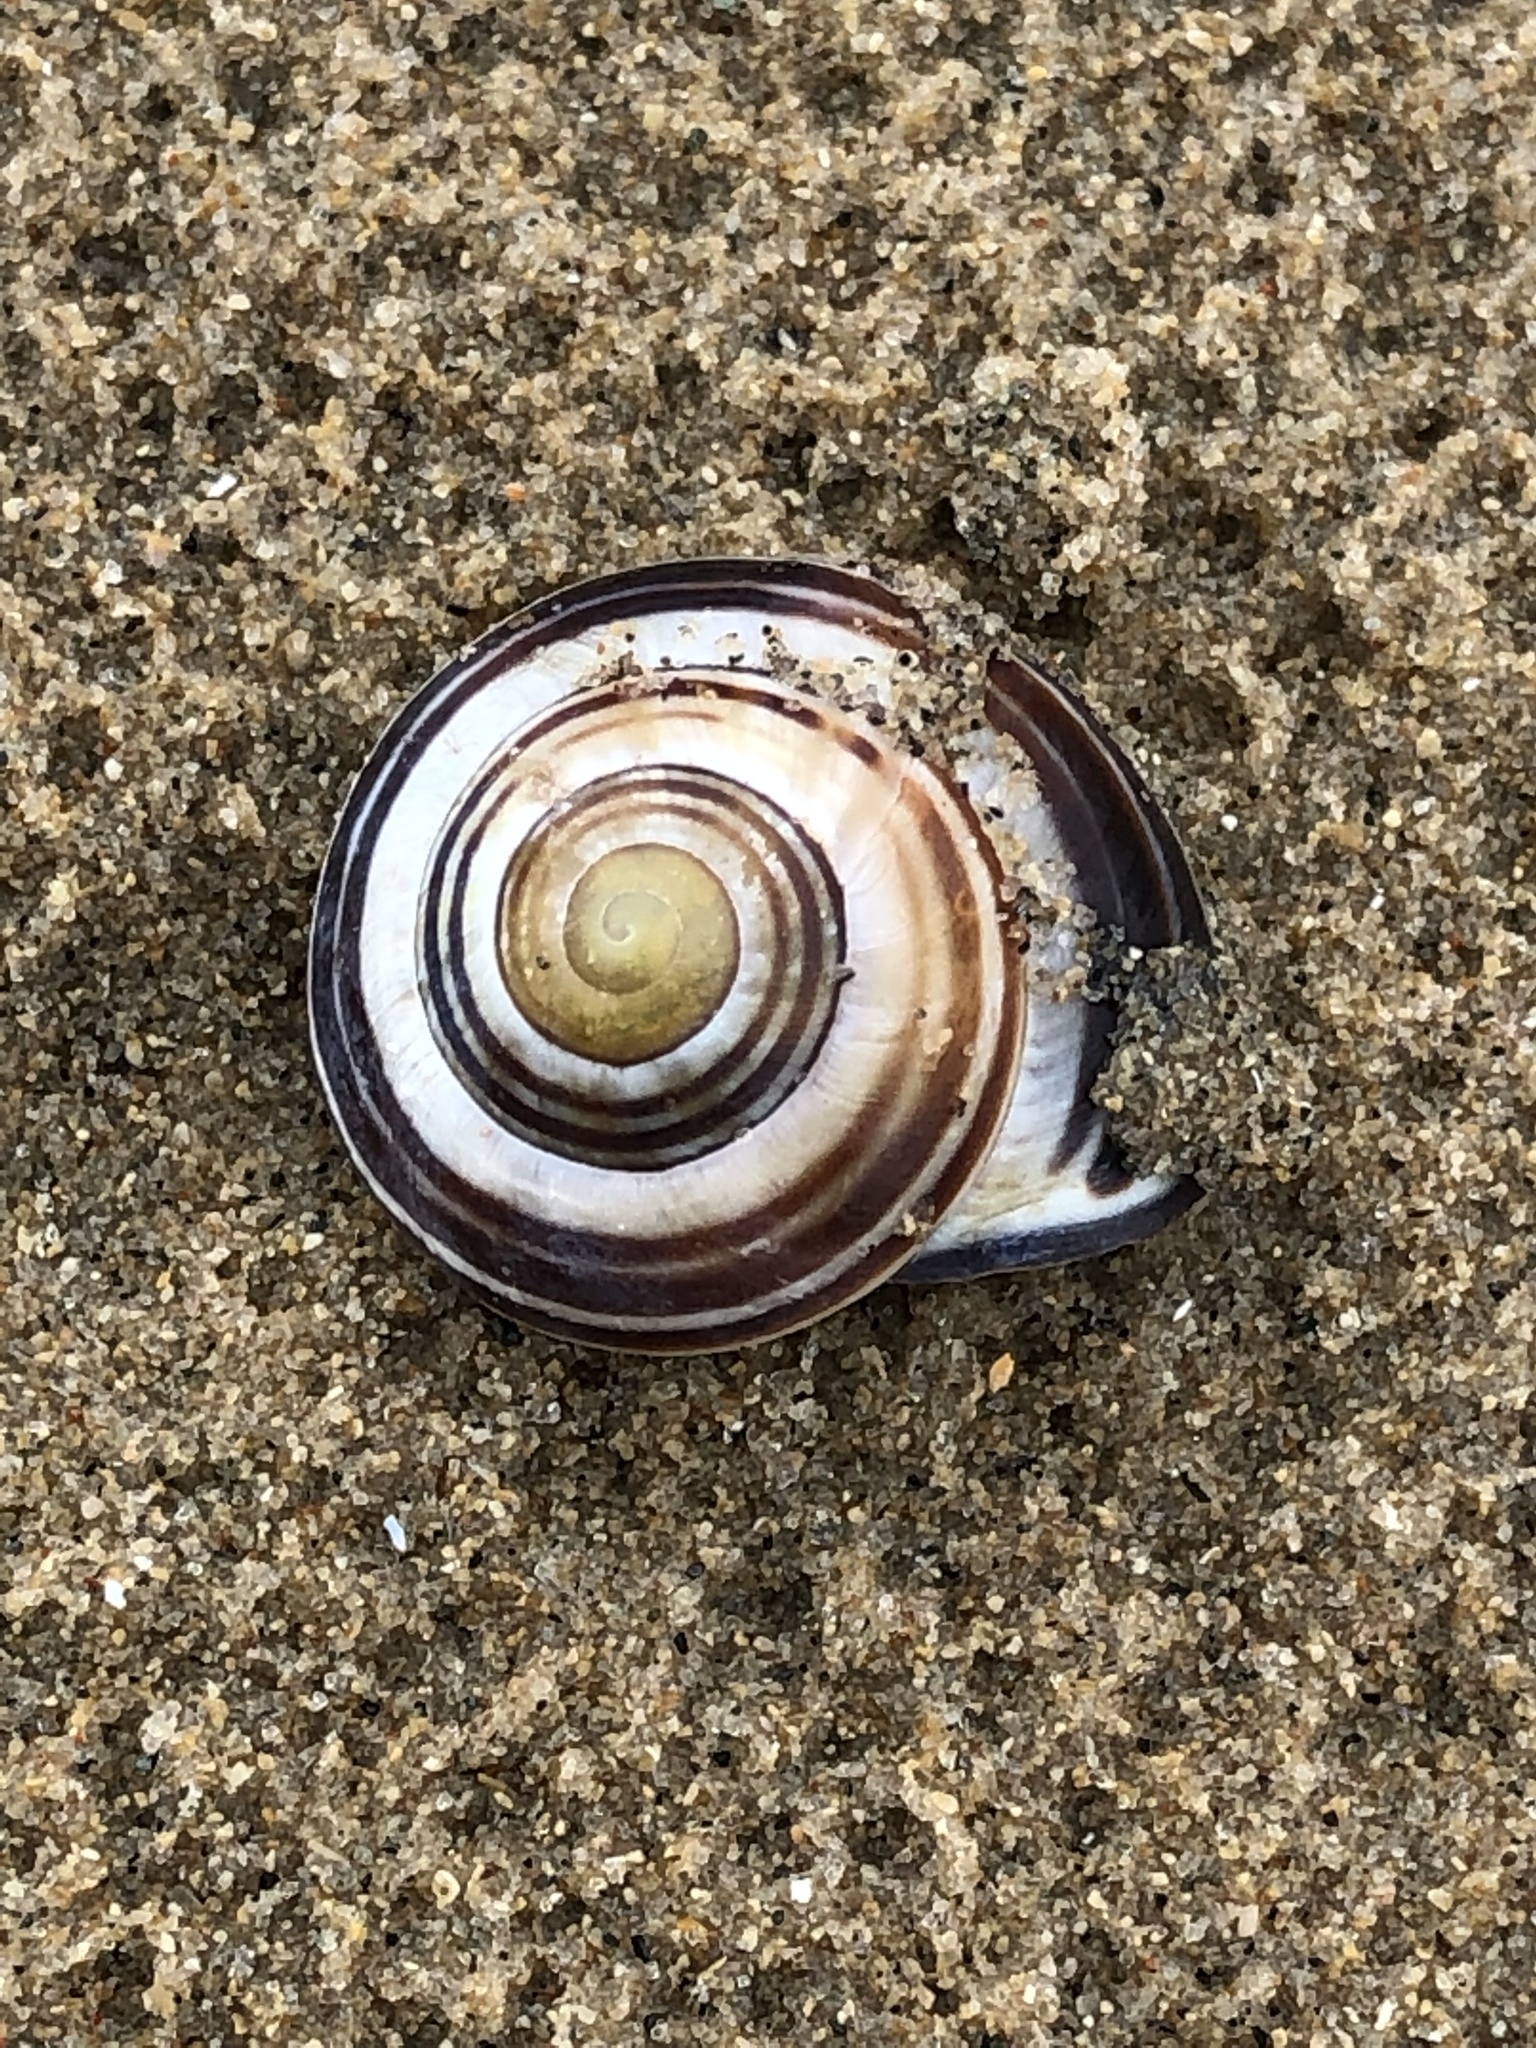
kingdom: Animalia
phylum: Mollusca
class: Gastropoda
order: Stylommatophora
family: Helicidae
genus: Cepaea
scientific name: Cepaea nemoralis
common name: Grovesnail
